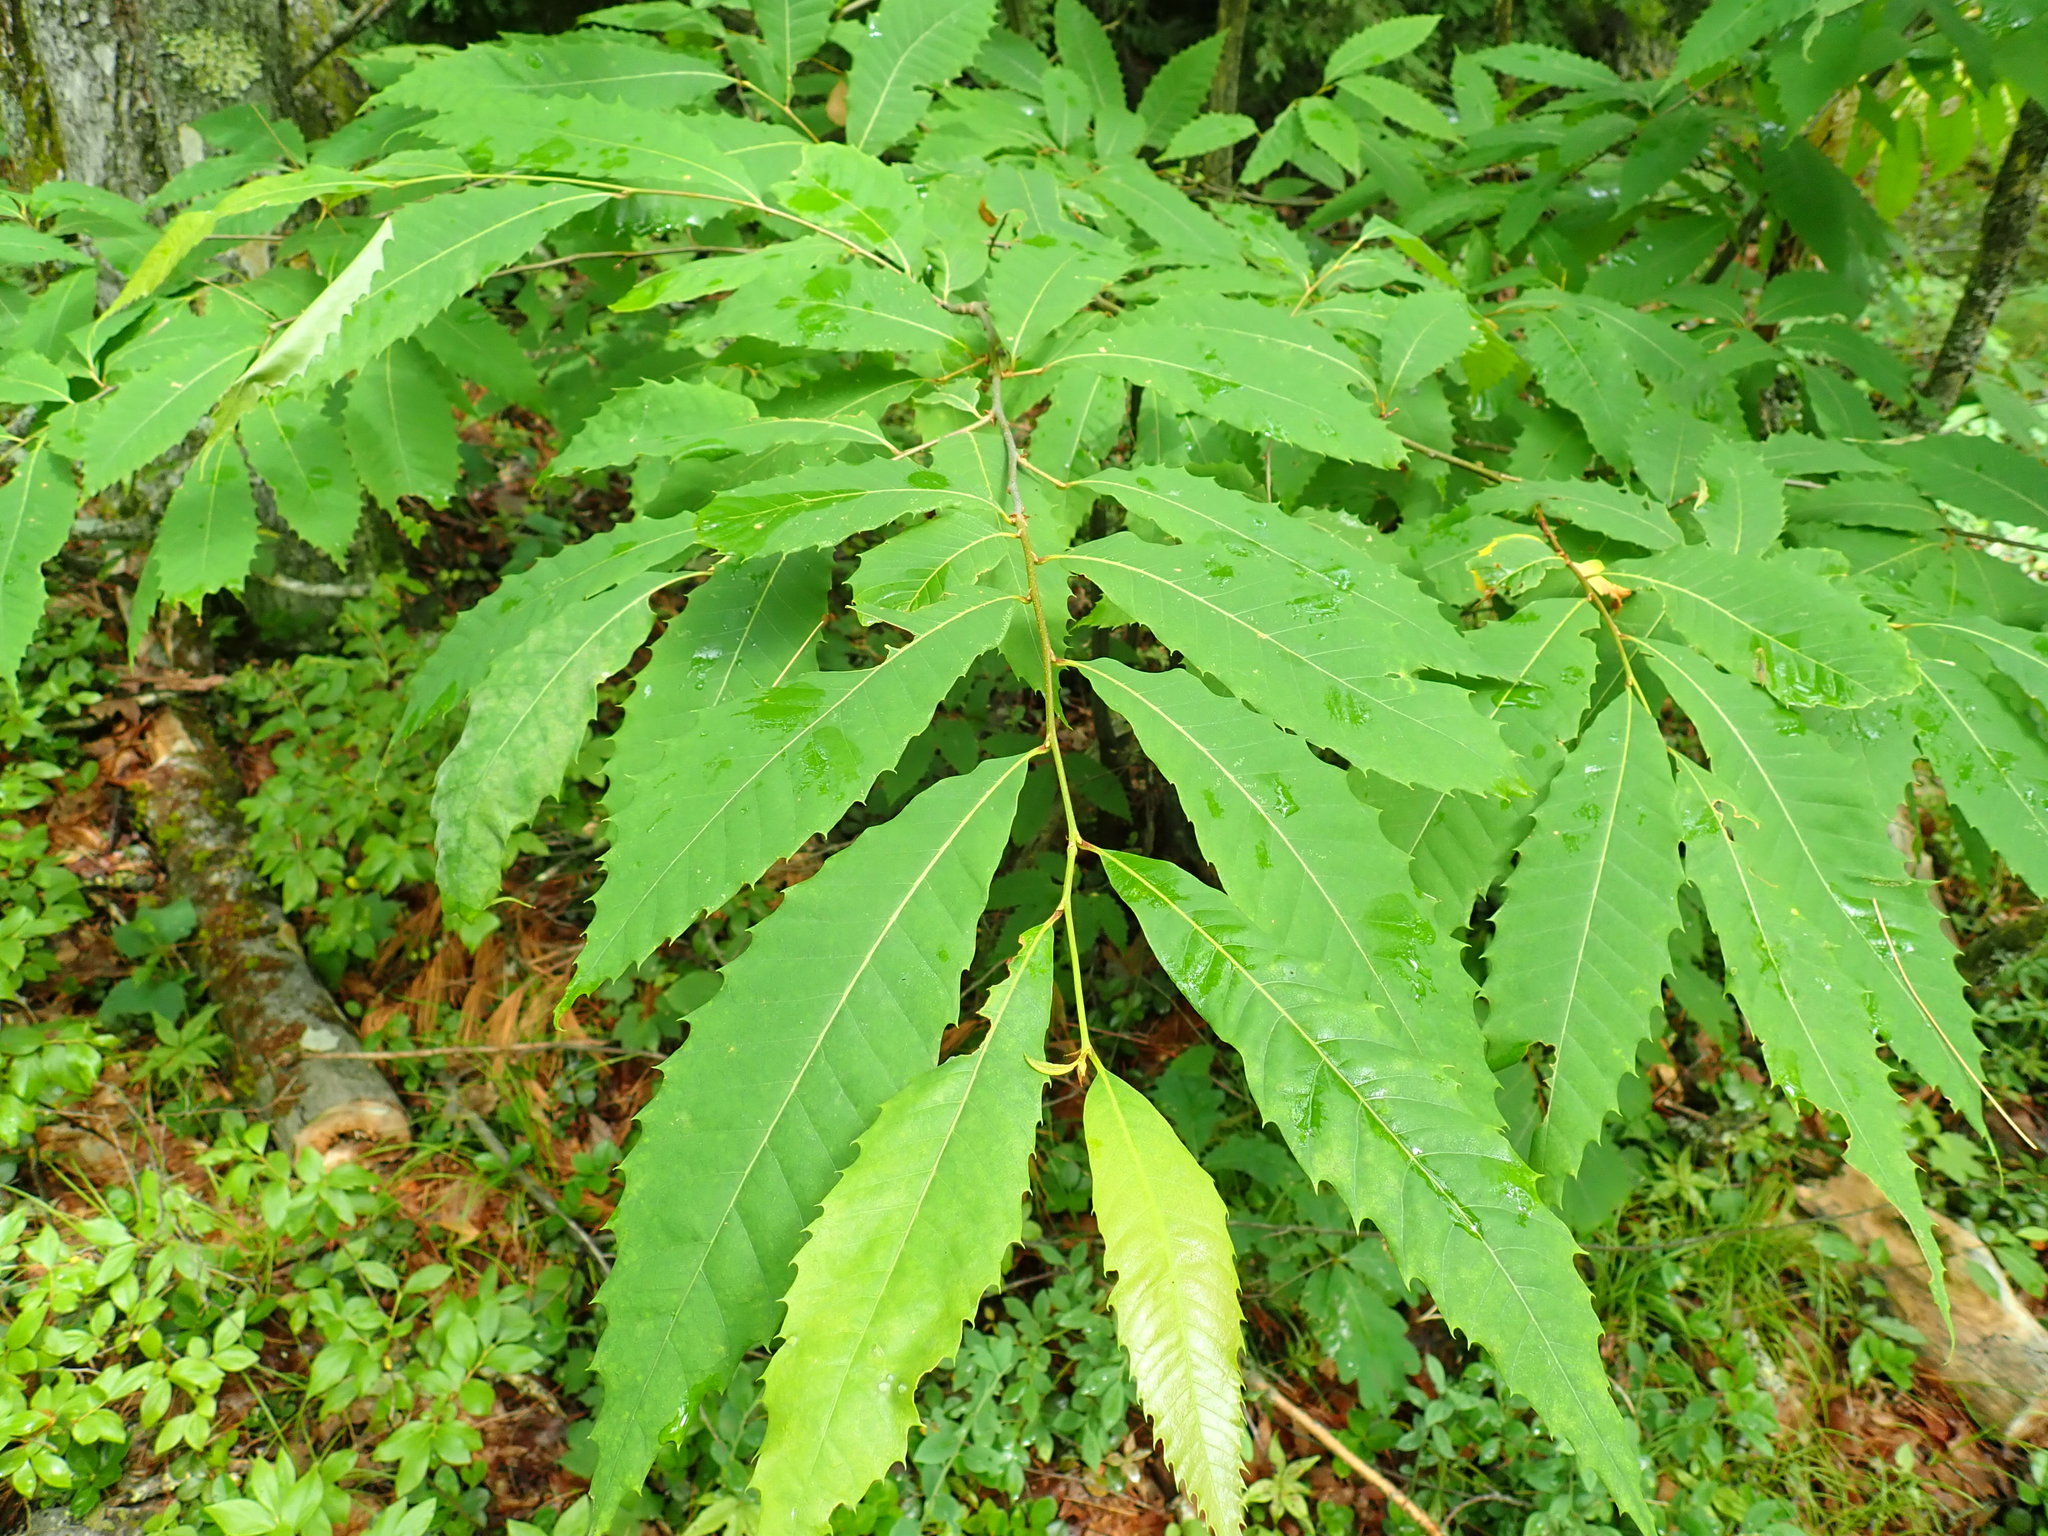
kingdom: Plantae
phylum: Tracheophyta
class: Magnoliopsida
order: Fagales
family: Fagaceae
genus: Castanea
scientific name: Castanea dentata
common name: American chestnut
